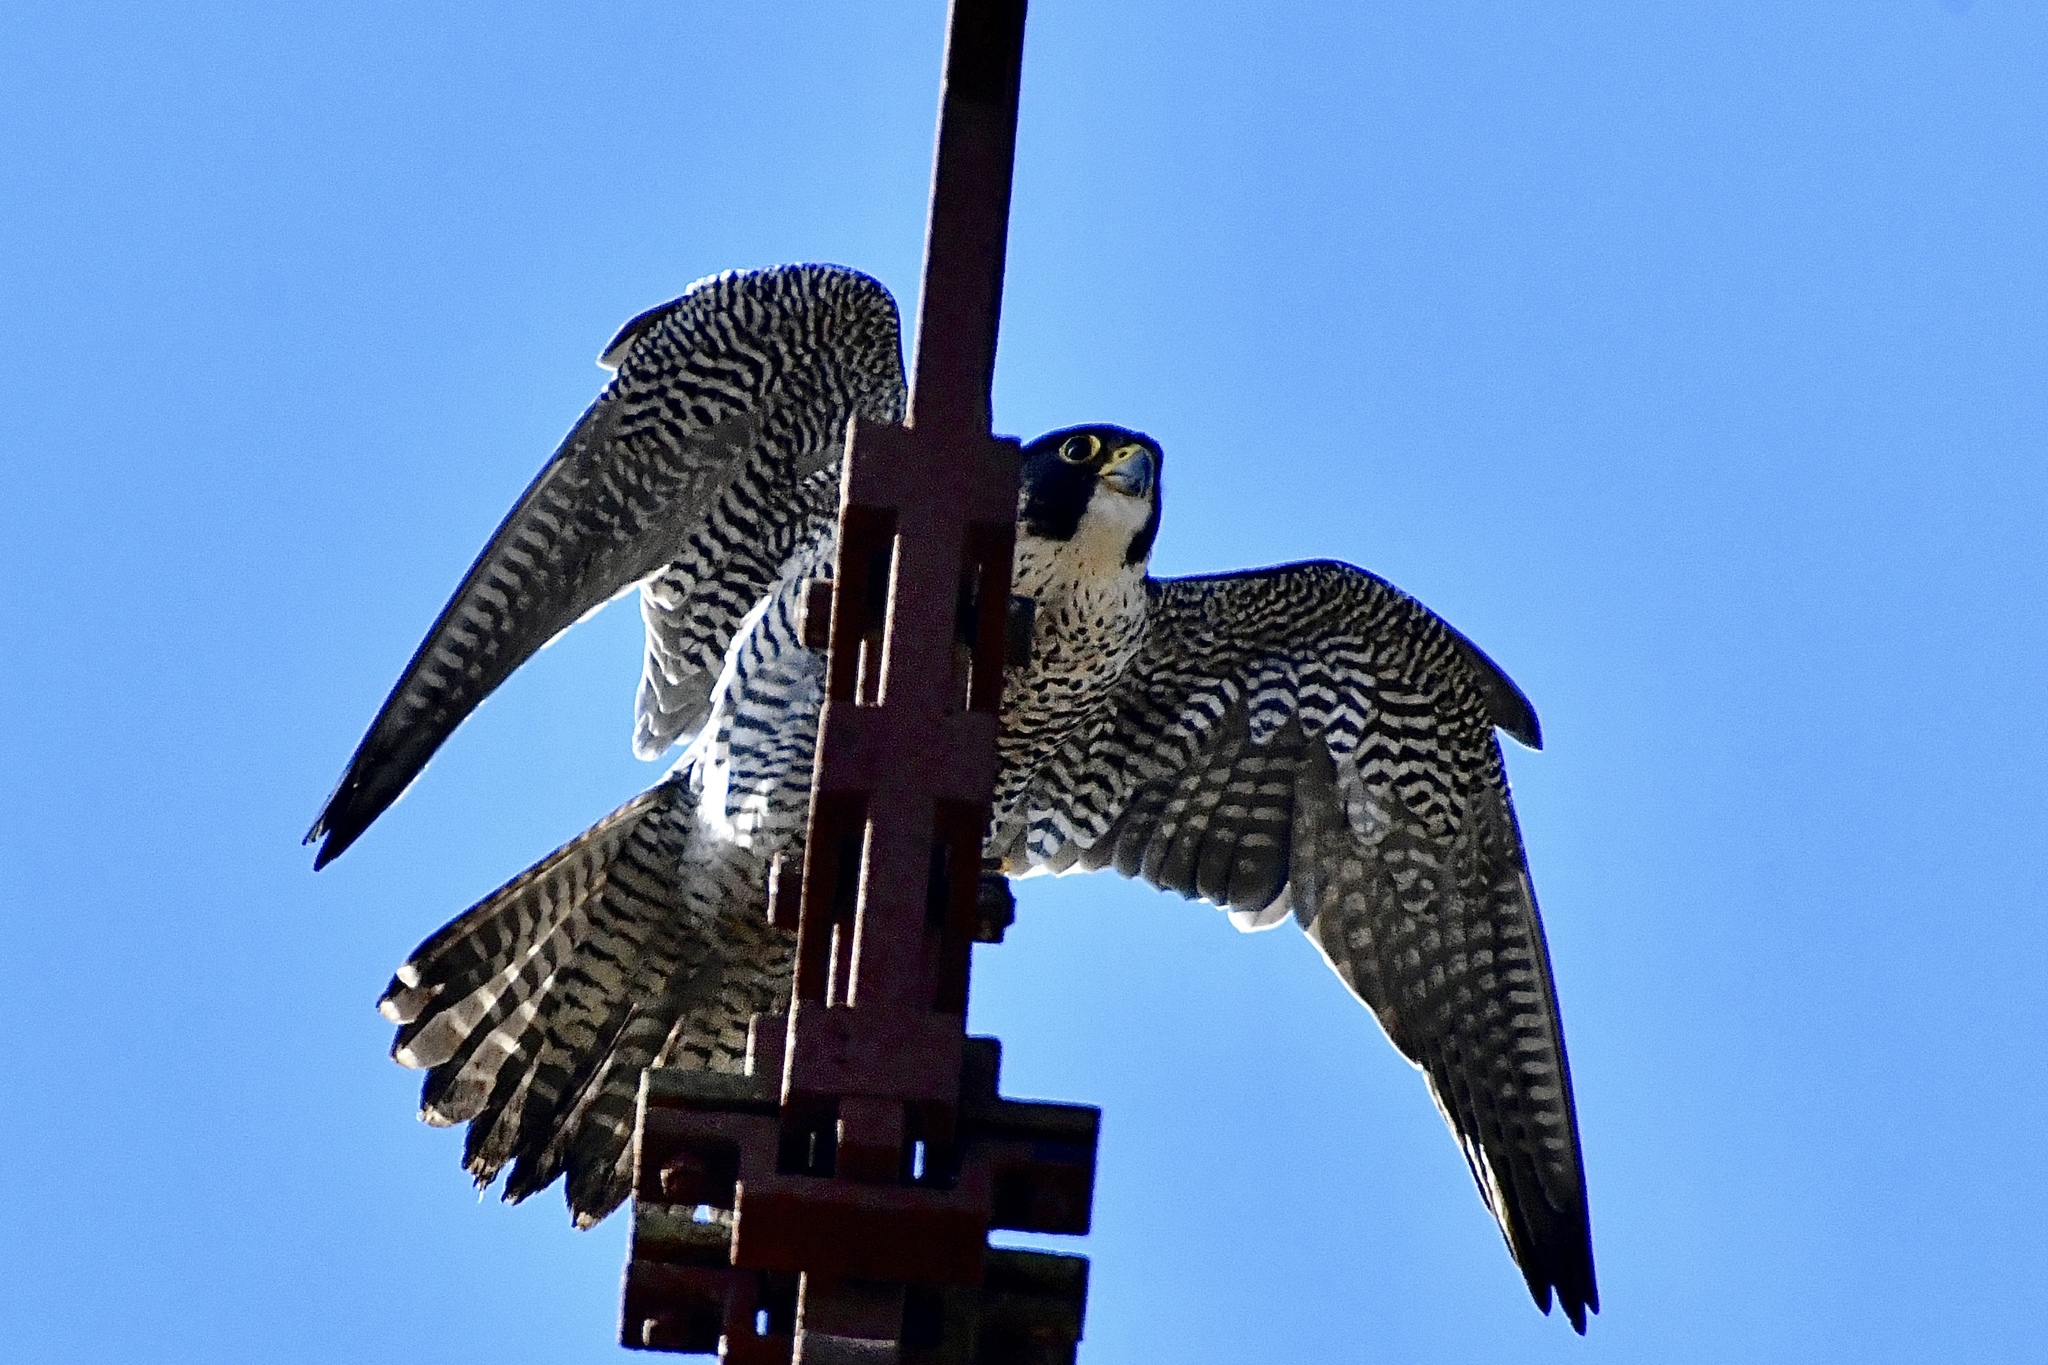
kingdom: Animalia
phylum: Chordata
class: Aves
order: Falconiformes
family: Falconidae
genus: Falco
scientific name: Falco peregrinus
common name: Peregrine falcon
